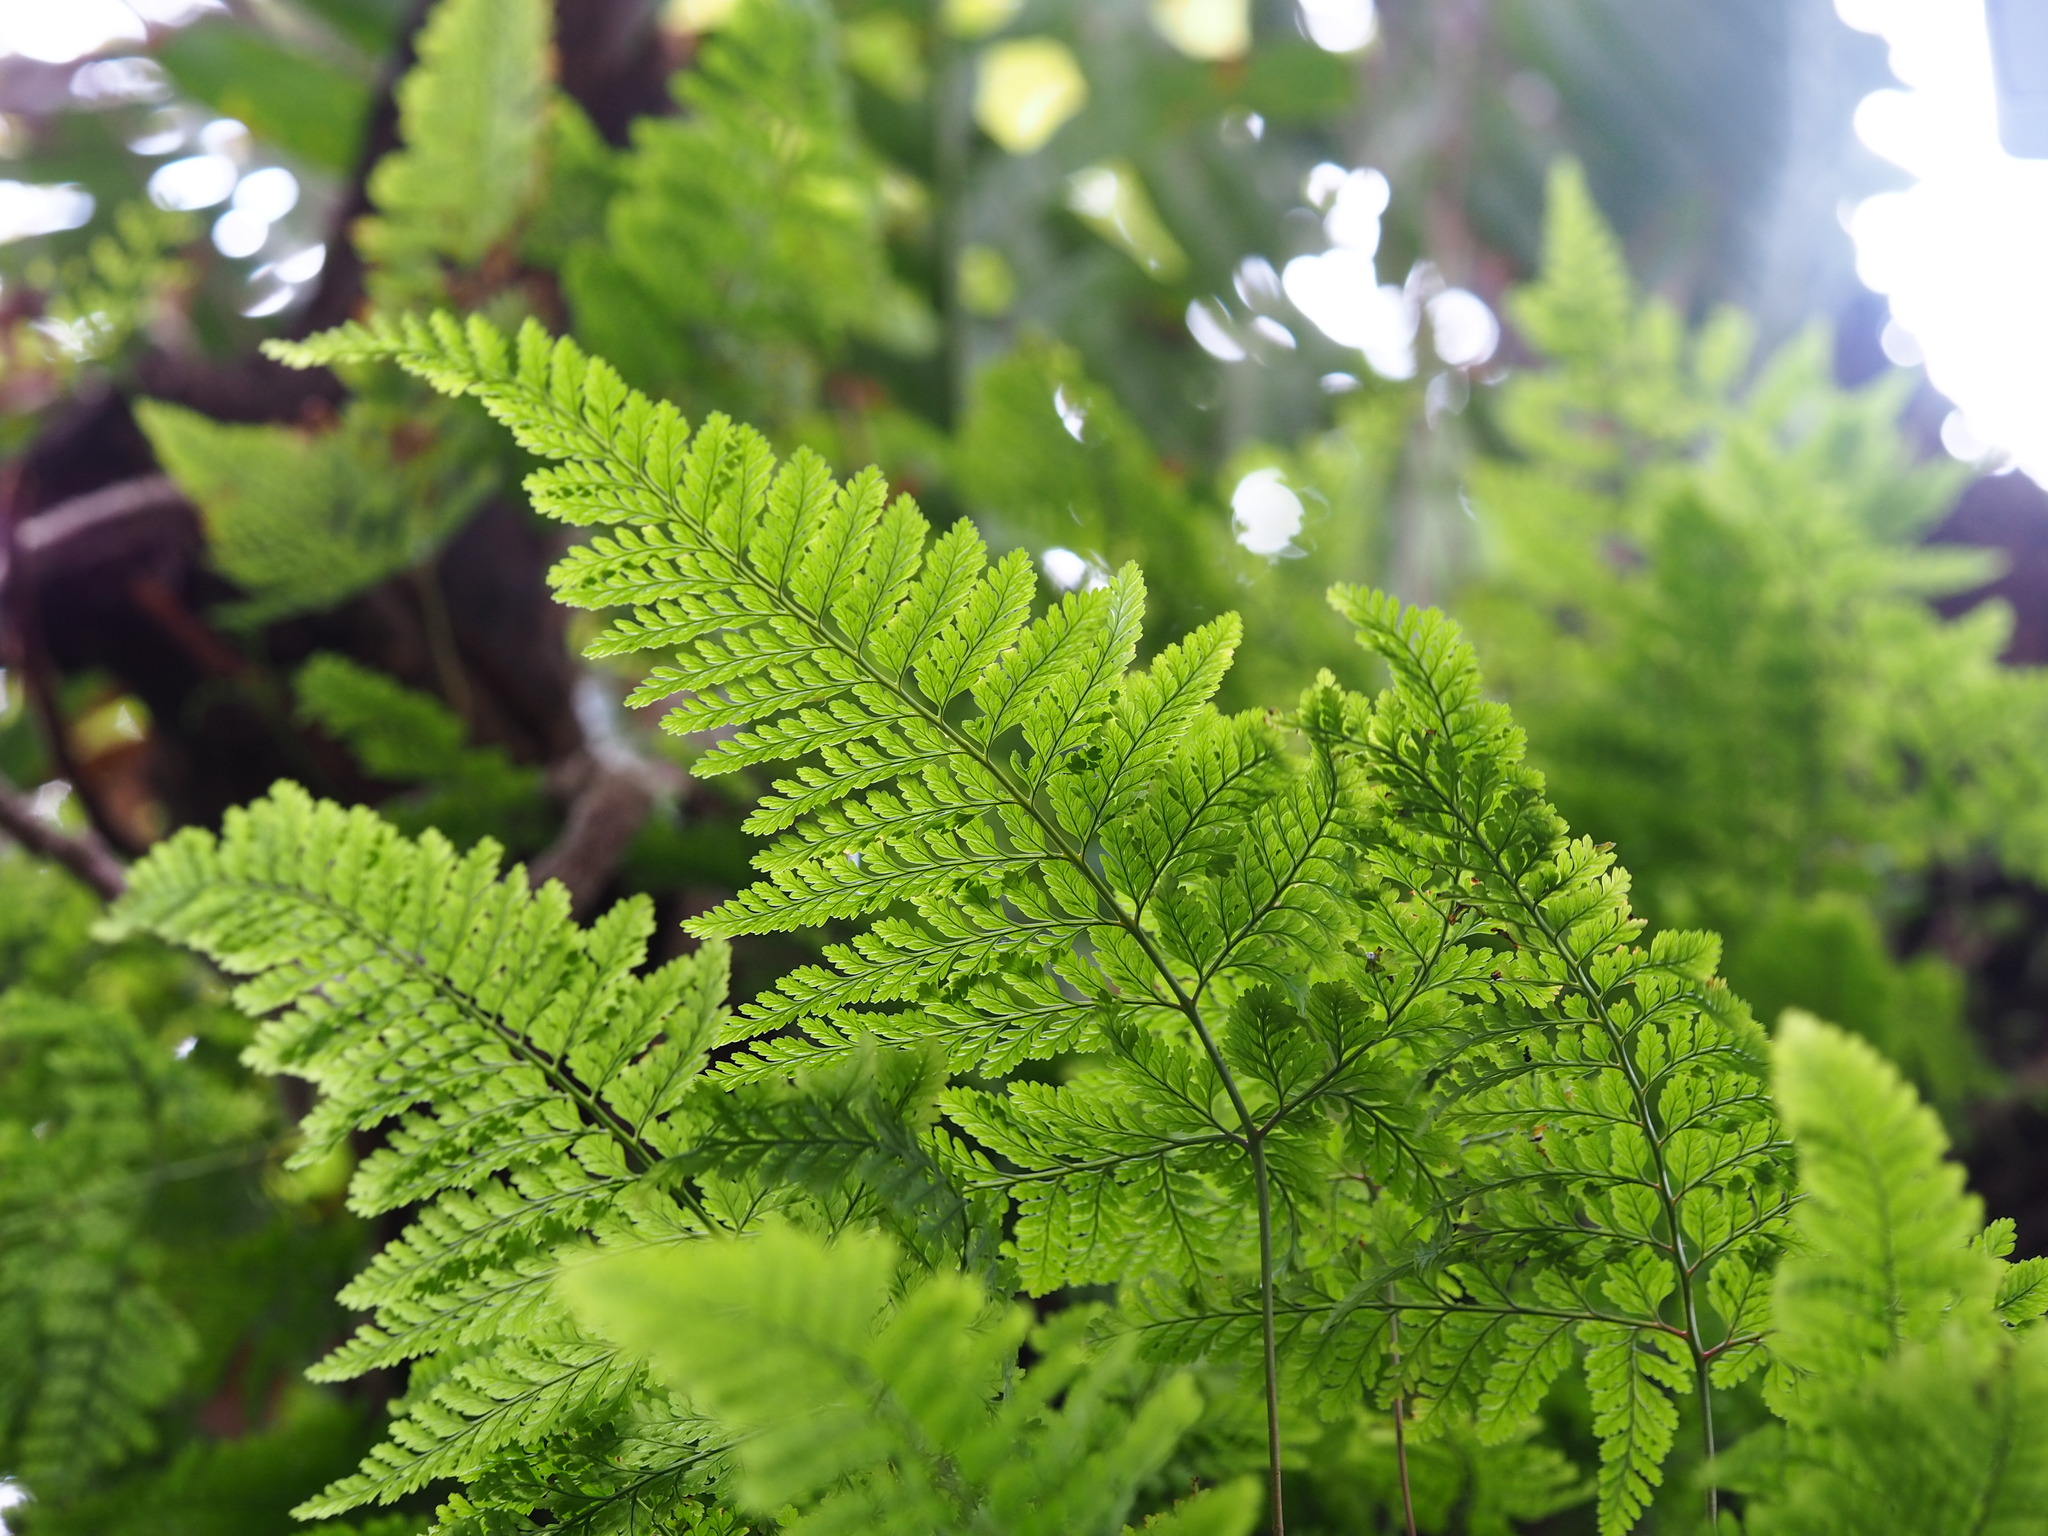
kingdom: Plantae
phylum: Tracheophyta
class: Polypodiopsida
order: Polypodiales
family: Davalliaceae
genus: Davallia
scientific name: Davallia griffithiana
